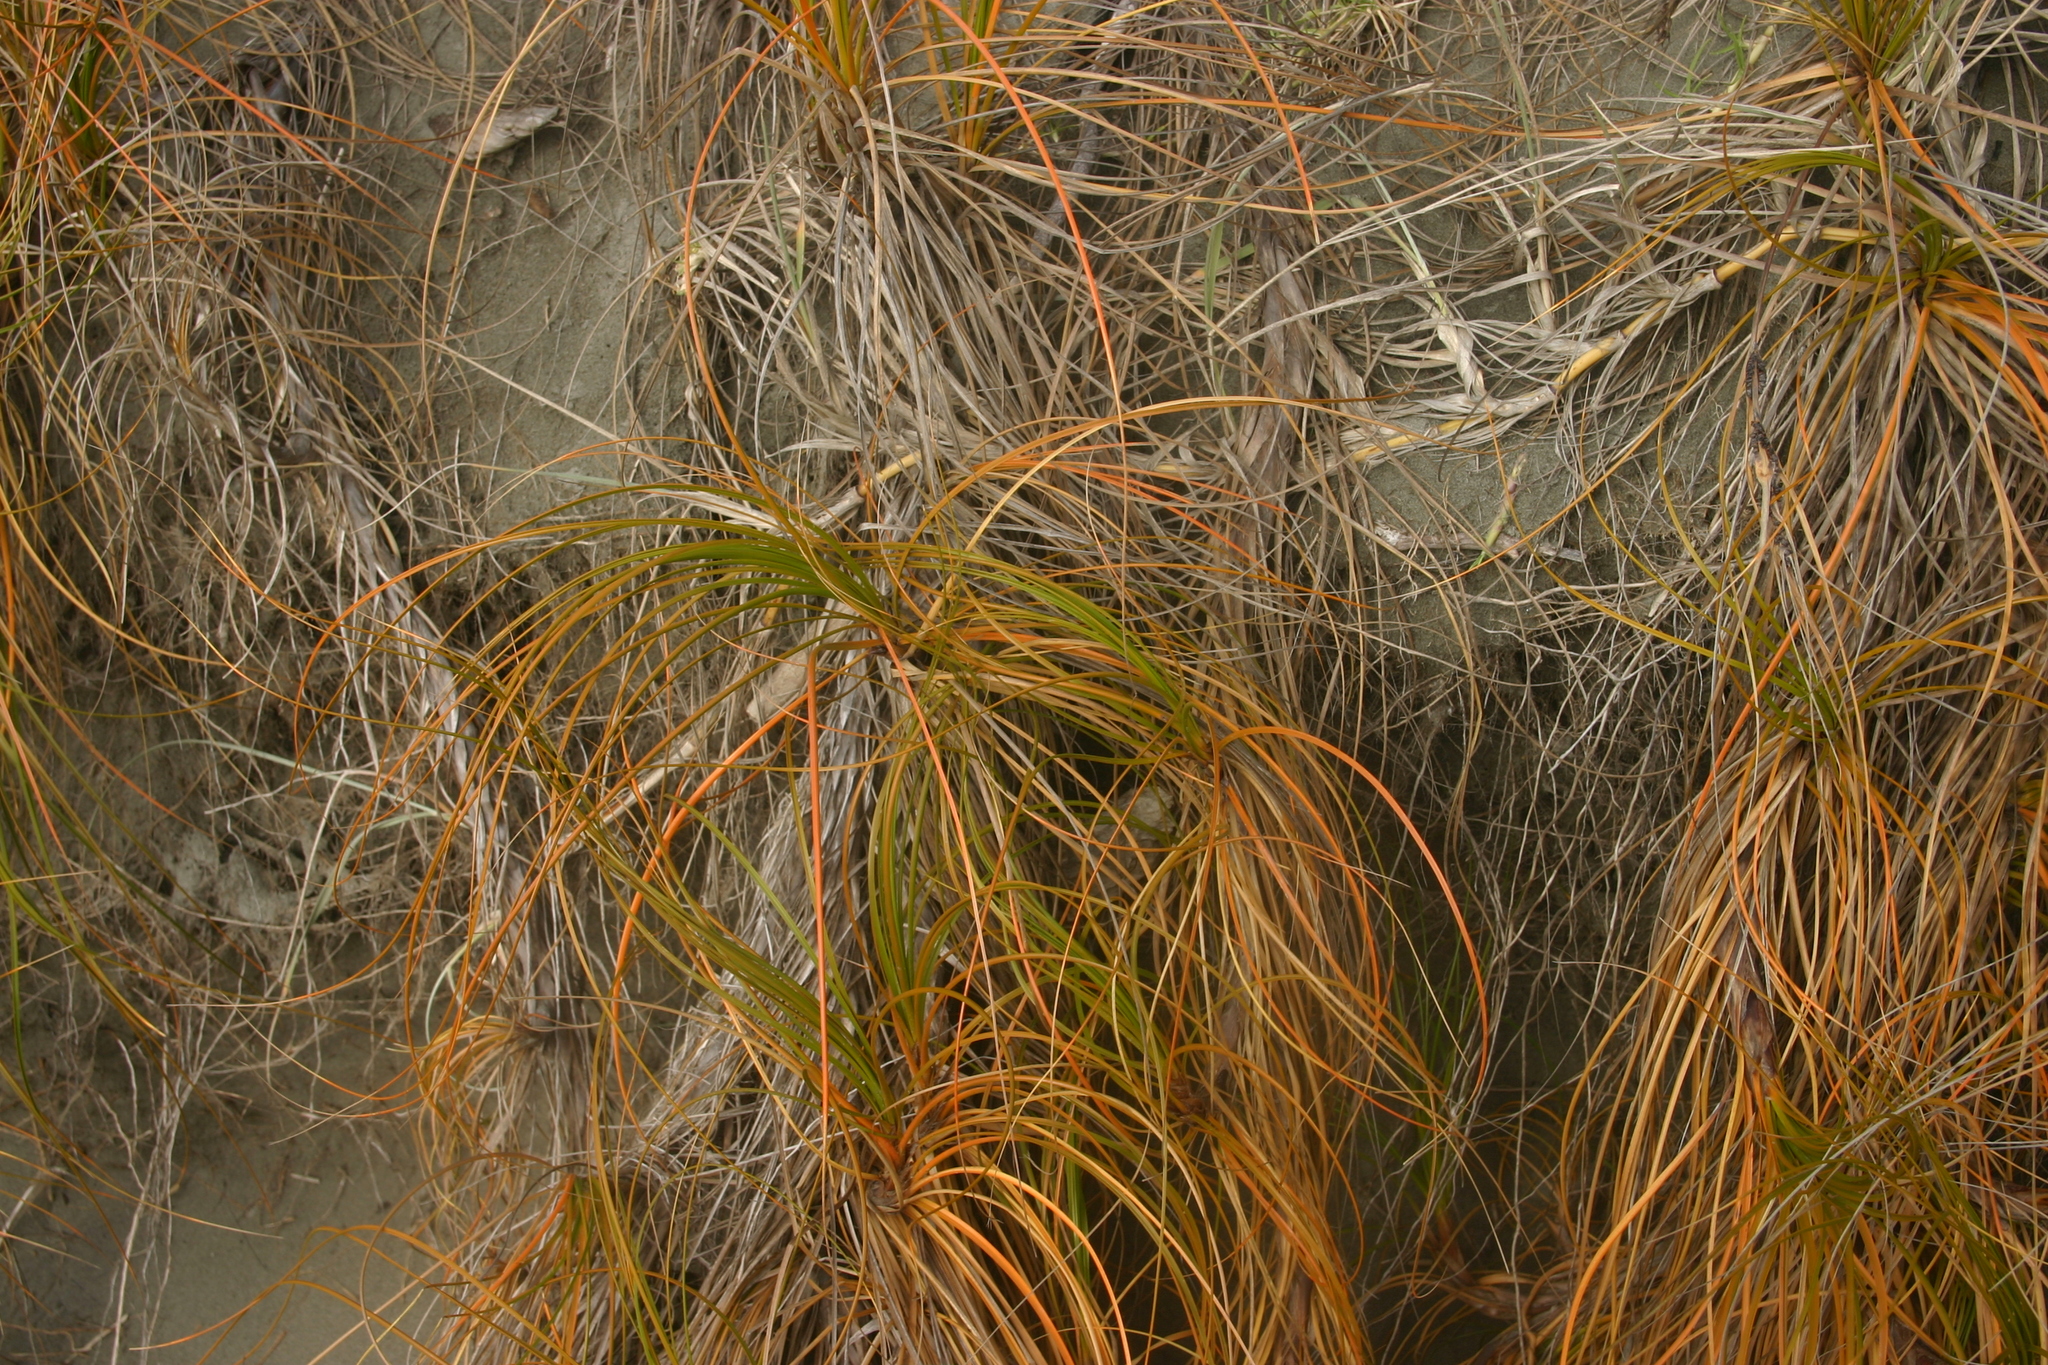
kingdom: Plantae
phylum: Tracheophyta
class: Liliopsida
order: Poales
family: Cyperaceae
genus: Ficinia
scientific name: Ficinia spiralis
